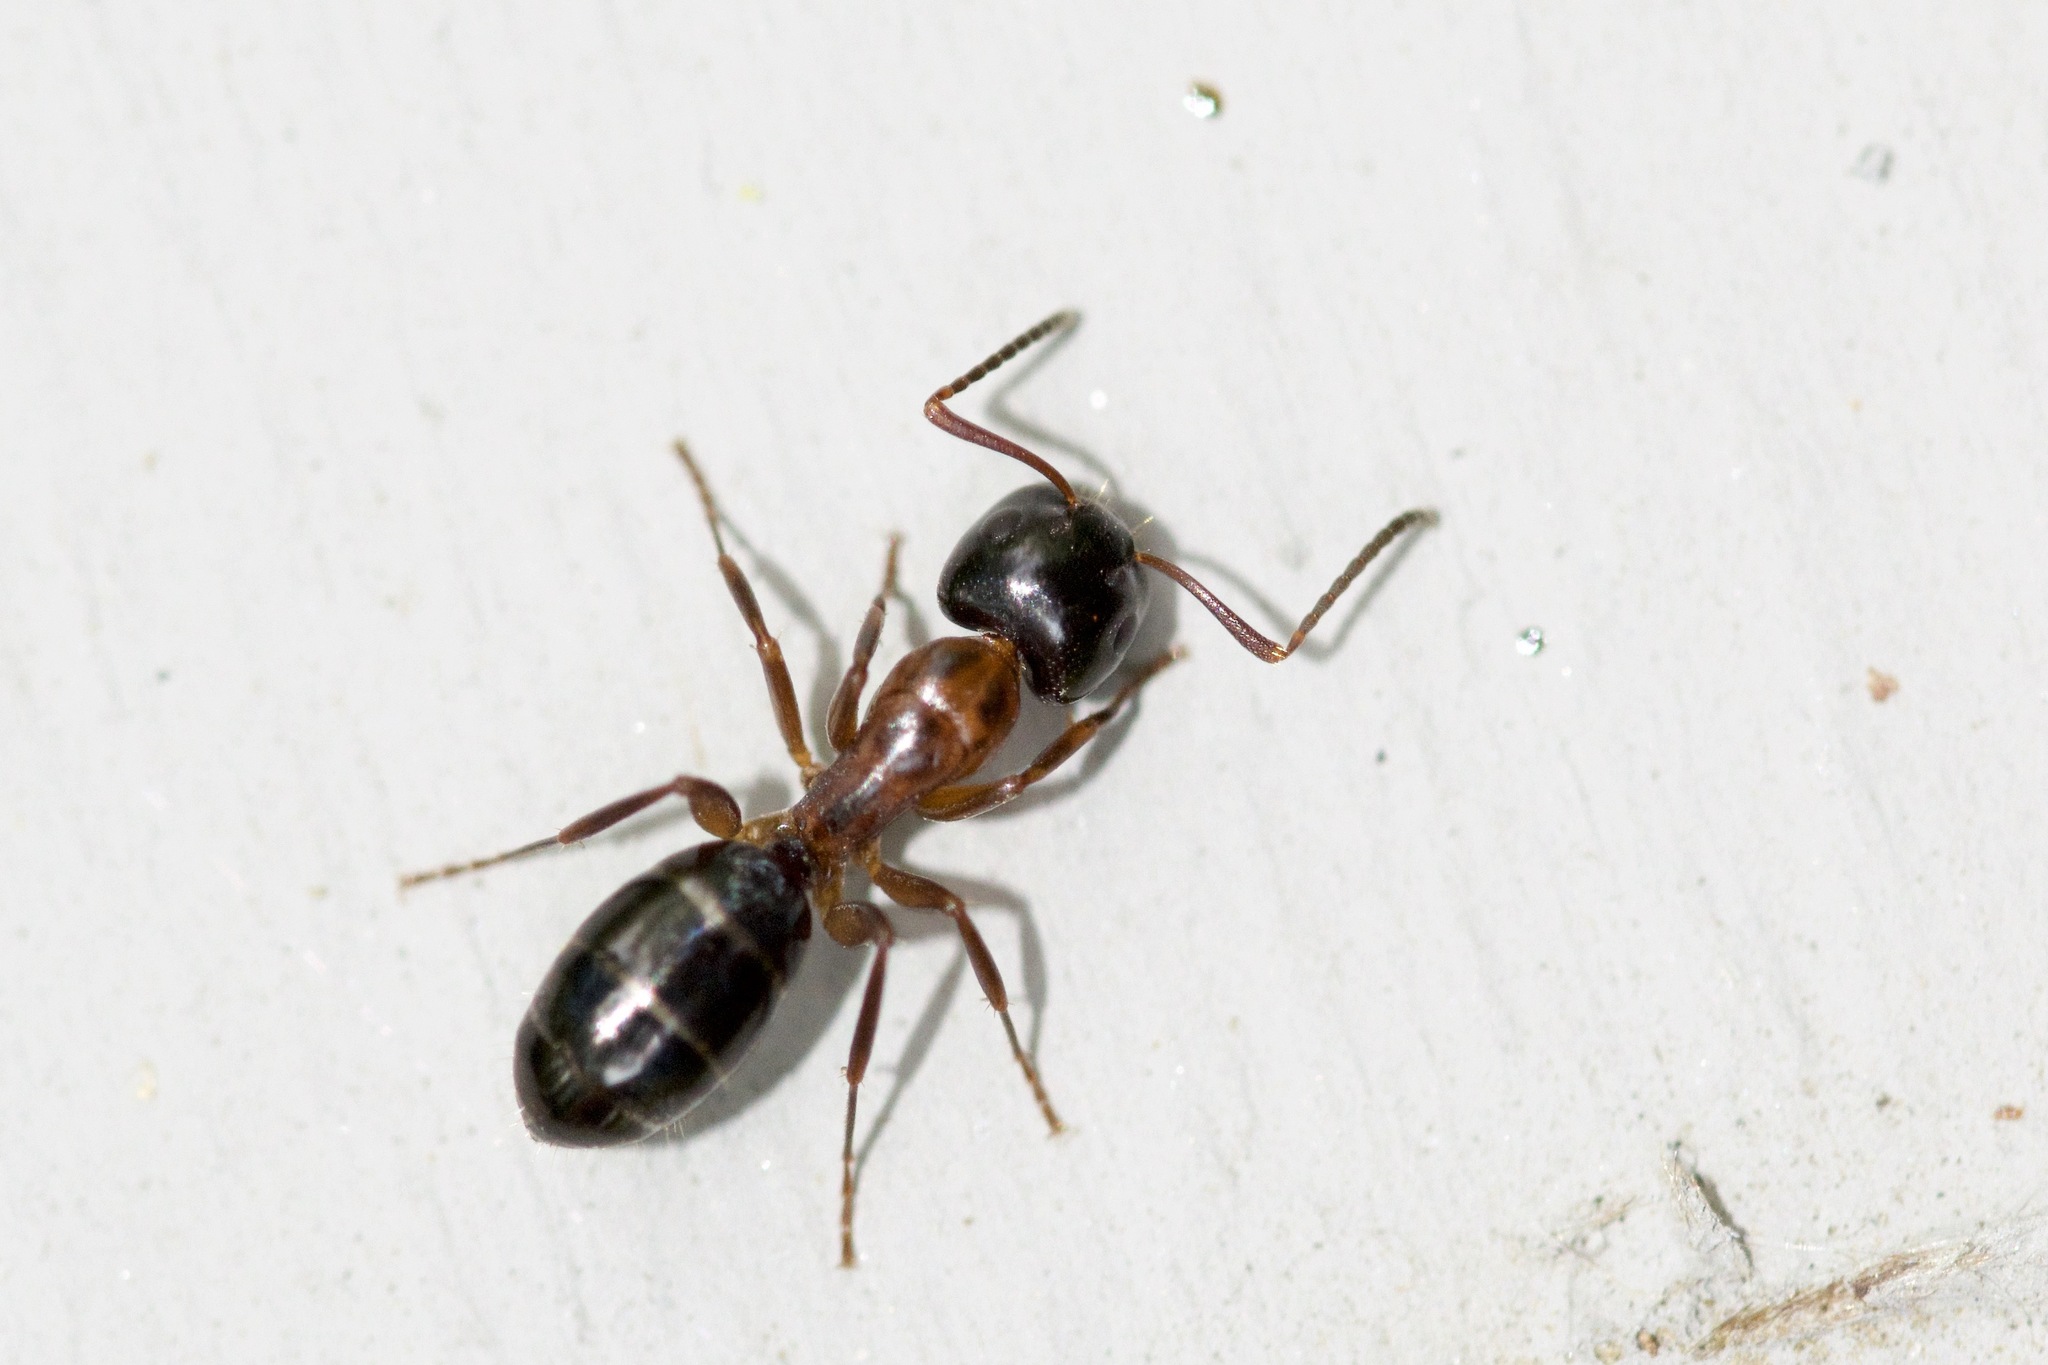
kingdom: Animalia
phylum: Arthropoda
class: Insecta
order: Hymenoptera
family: Formicidae
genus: Camponotus
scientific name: Camponotus nearcticus
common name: Smaller carpenter ant
